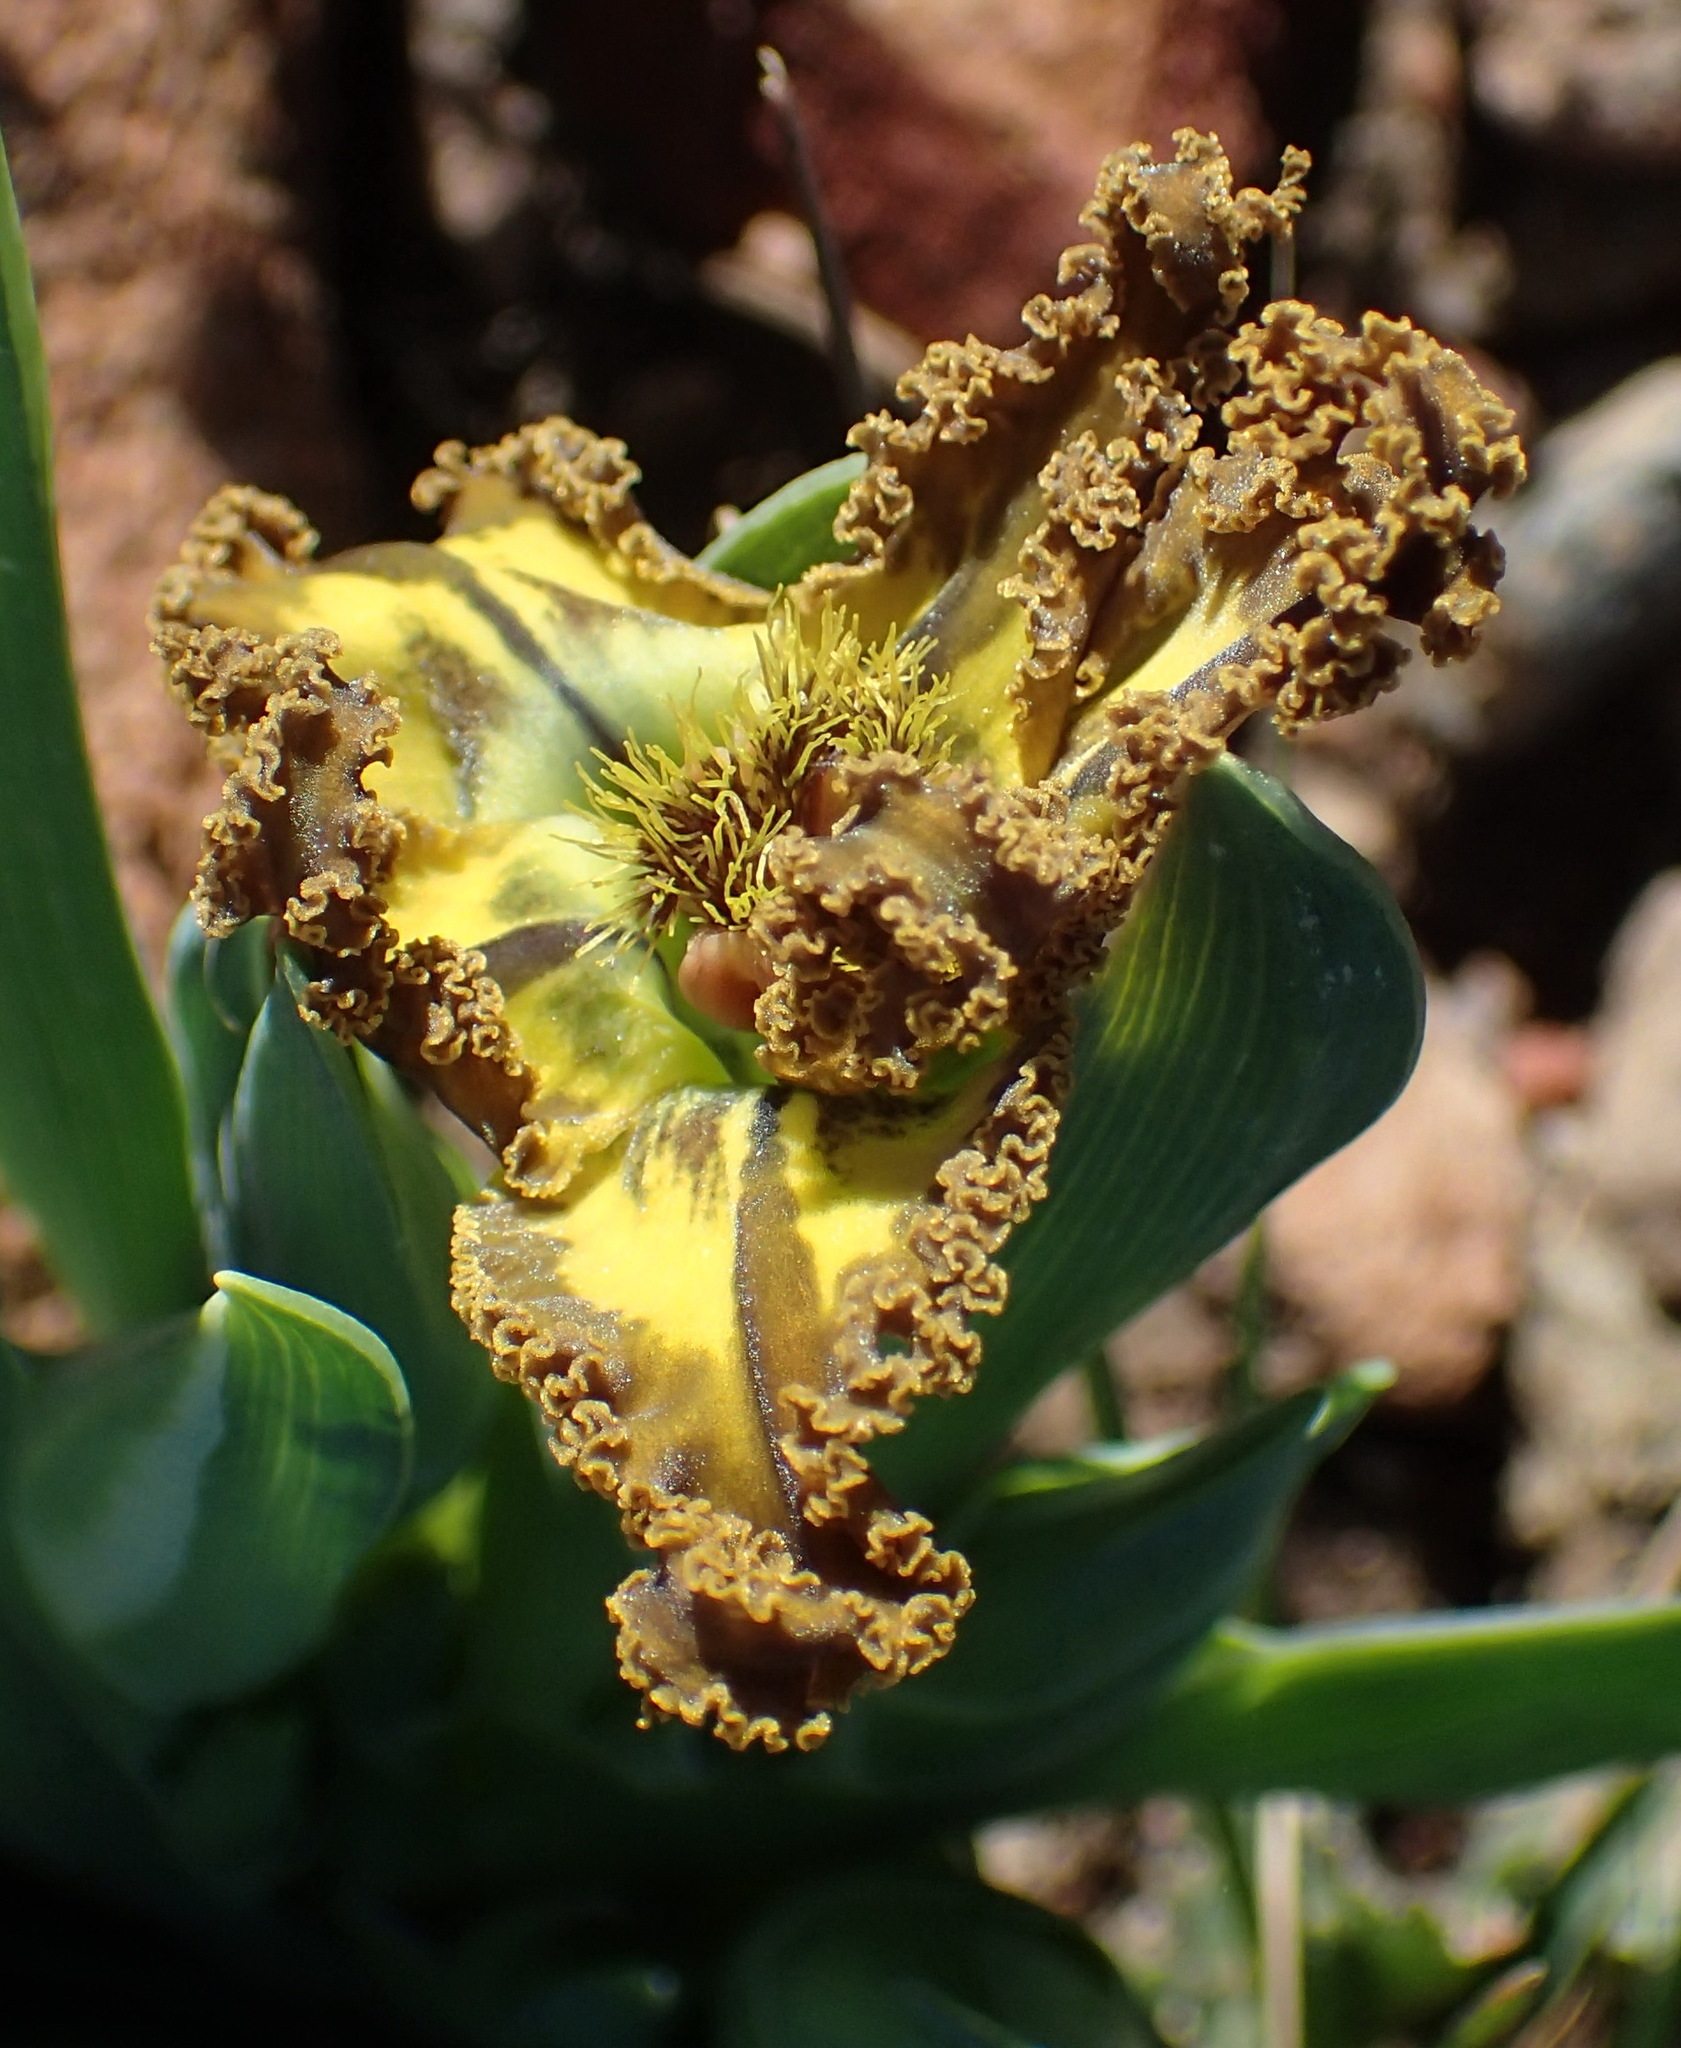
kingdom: Plantae
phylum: Tracheophyta
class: Liliopsida
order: Asparagales
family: Iridaceae
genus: Ferraria
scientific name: Ferraria variabilis
